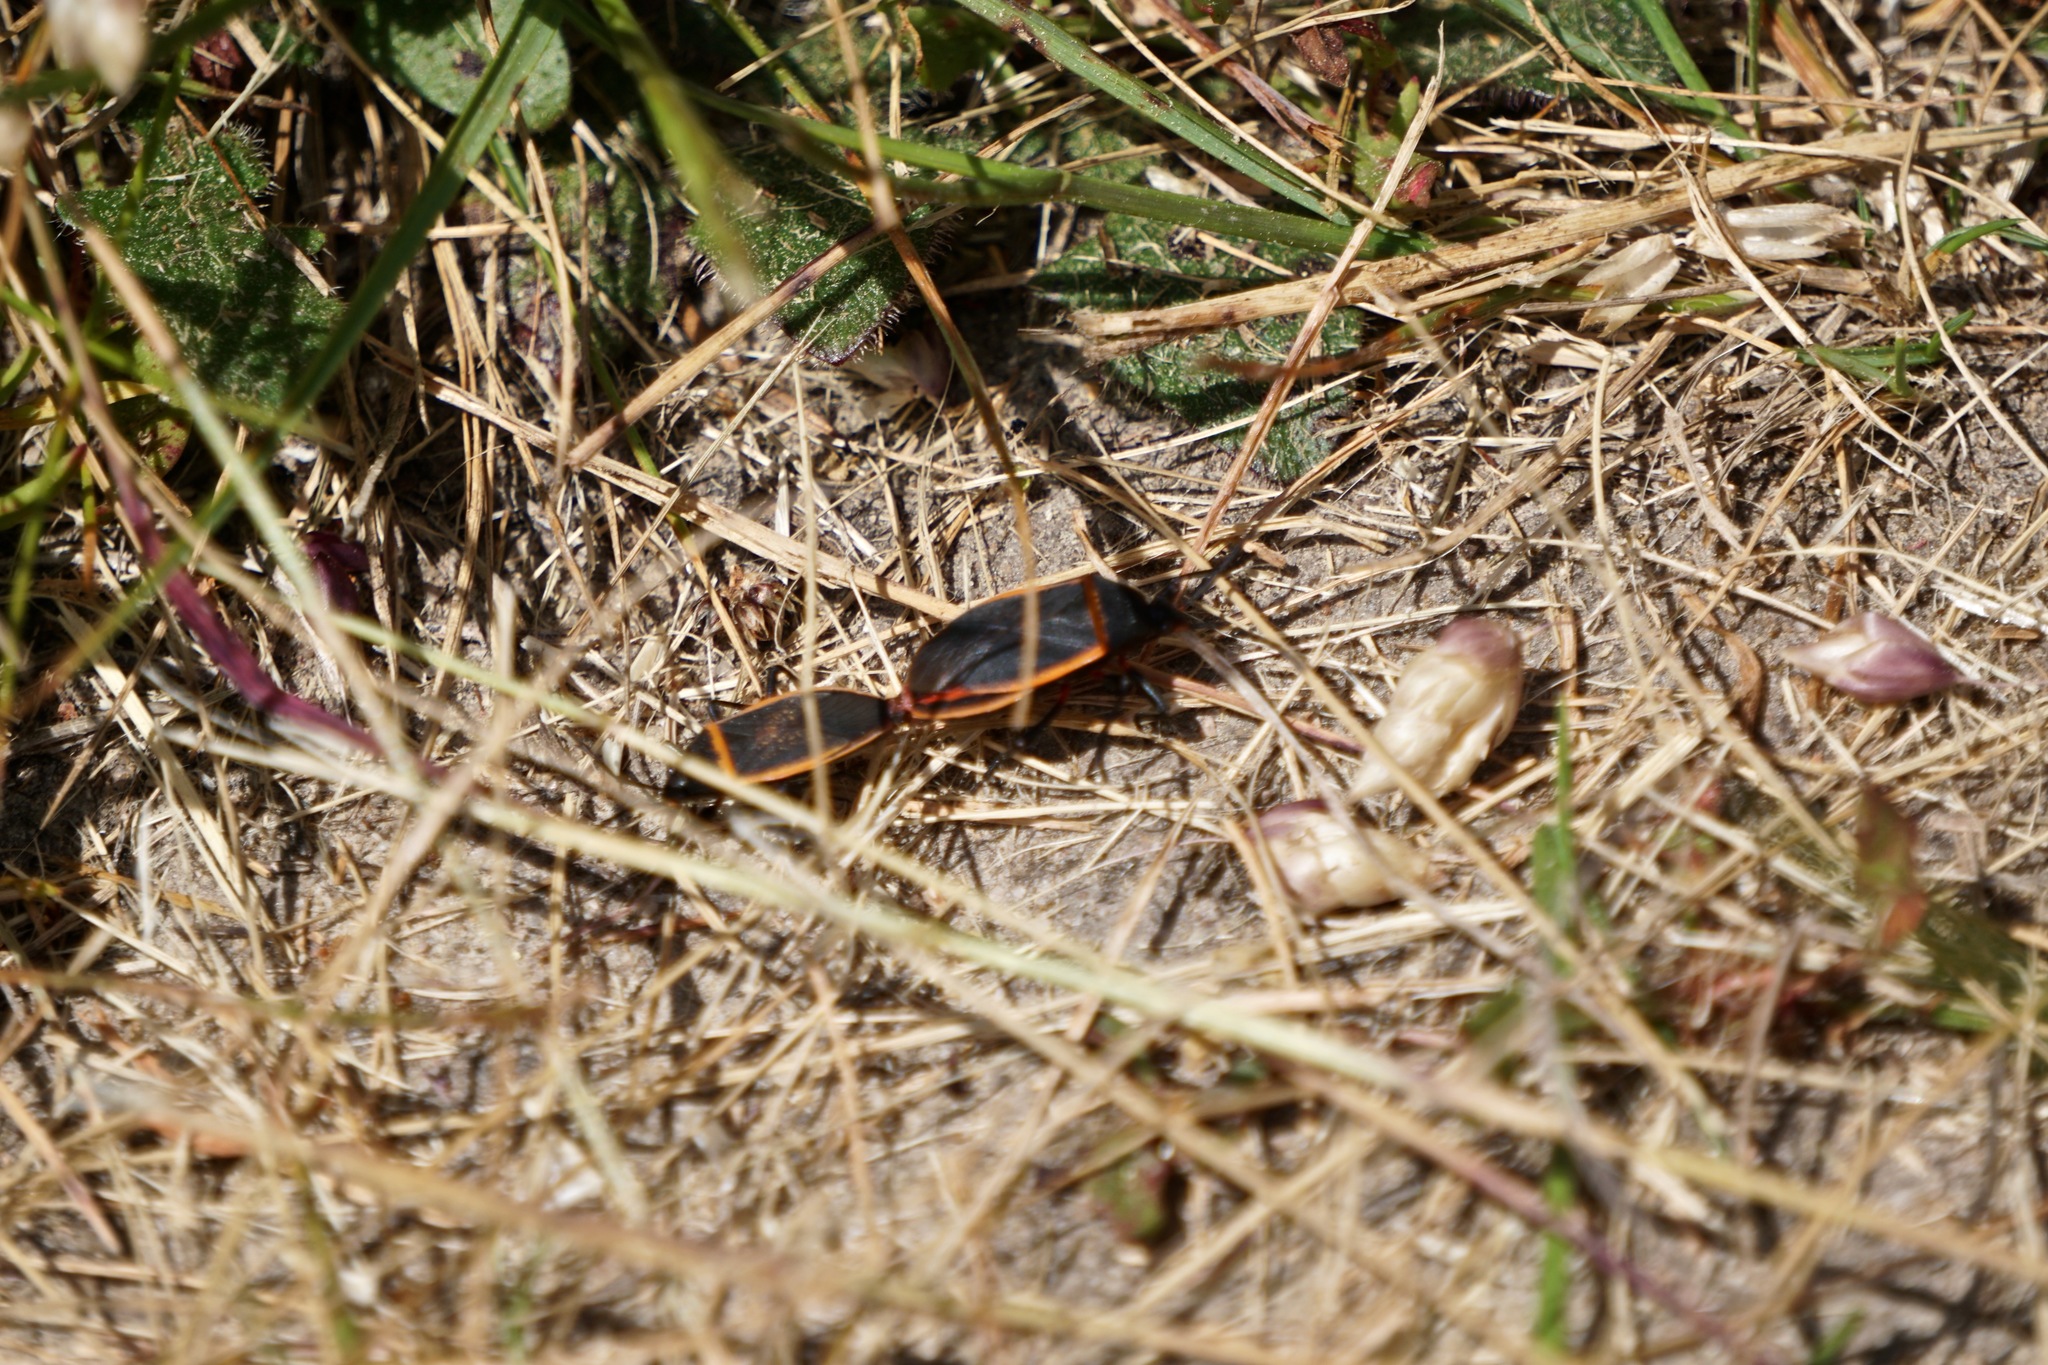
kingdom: Animalia
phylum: Arthropoda
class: Insecta
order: Hemiptera
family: Largidae
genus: Largus
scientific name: Largus californicus
